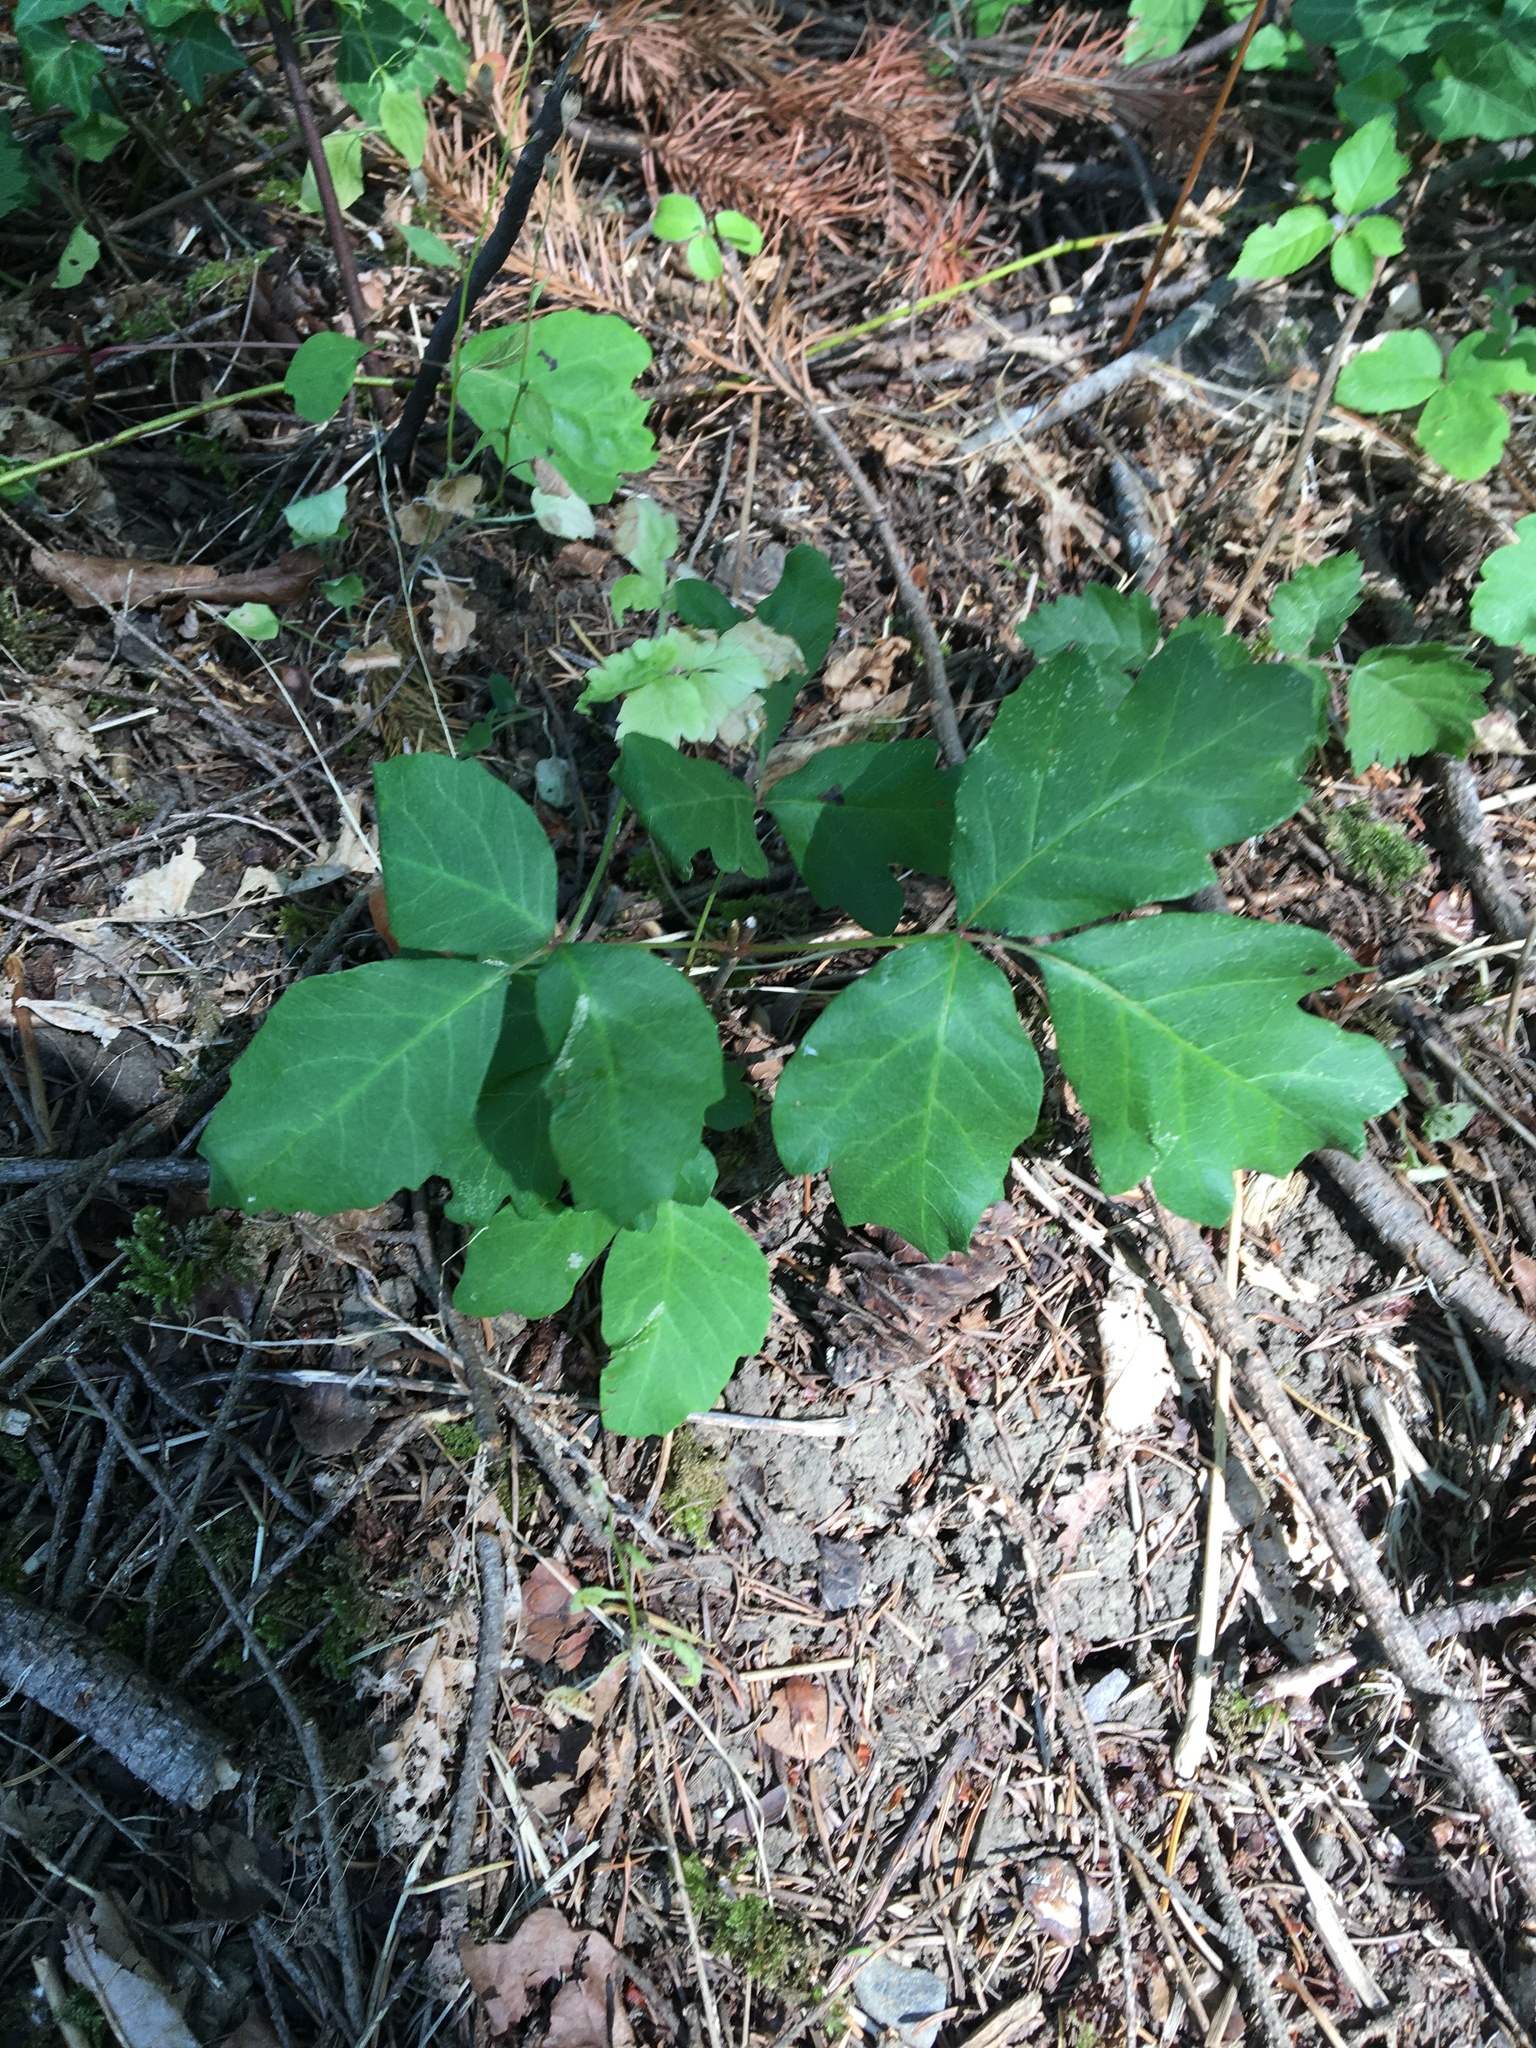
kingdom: Plantae
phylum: Tracheophyta
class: Magnoliopsida
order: Sapindales
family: Anacardiaceae
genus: Toxicodendron
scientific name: Toxicodendron diversilobum
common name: Pacific poison-oak
